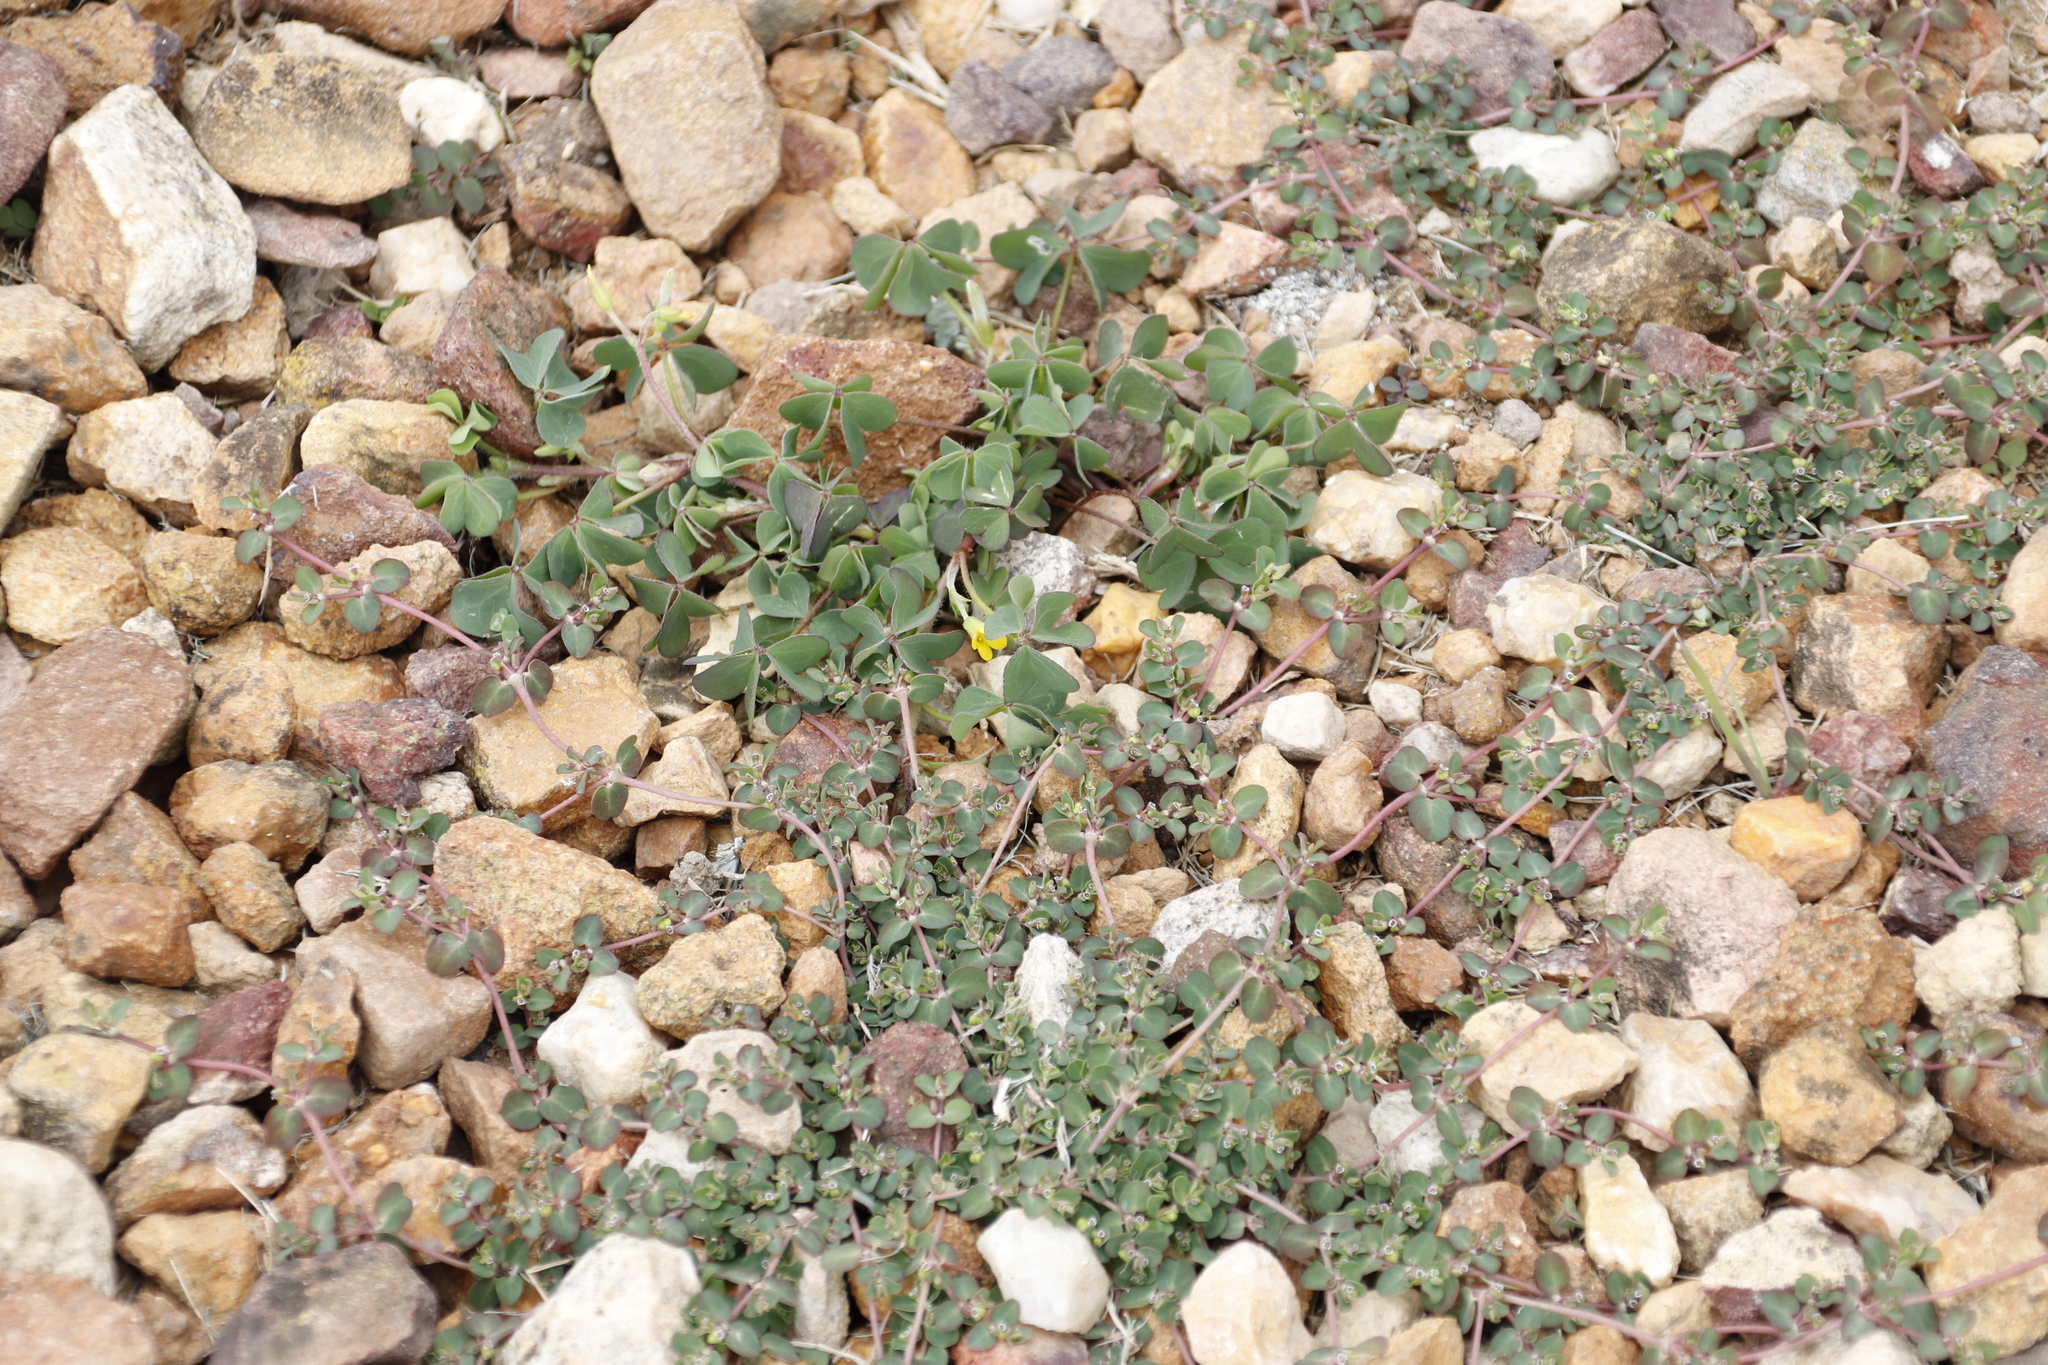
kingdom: Plantae
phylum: Tracheophyta
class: Magnoliopsida
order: Oxalidales
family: Oxalidaceae
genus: Oxalis
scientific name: Oxalis corniculata
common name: Procumbent yellow-sorrel
